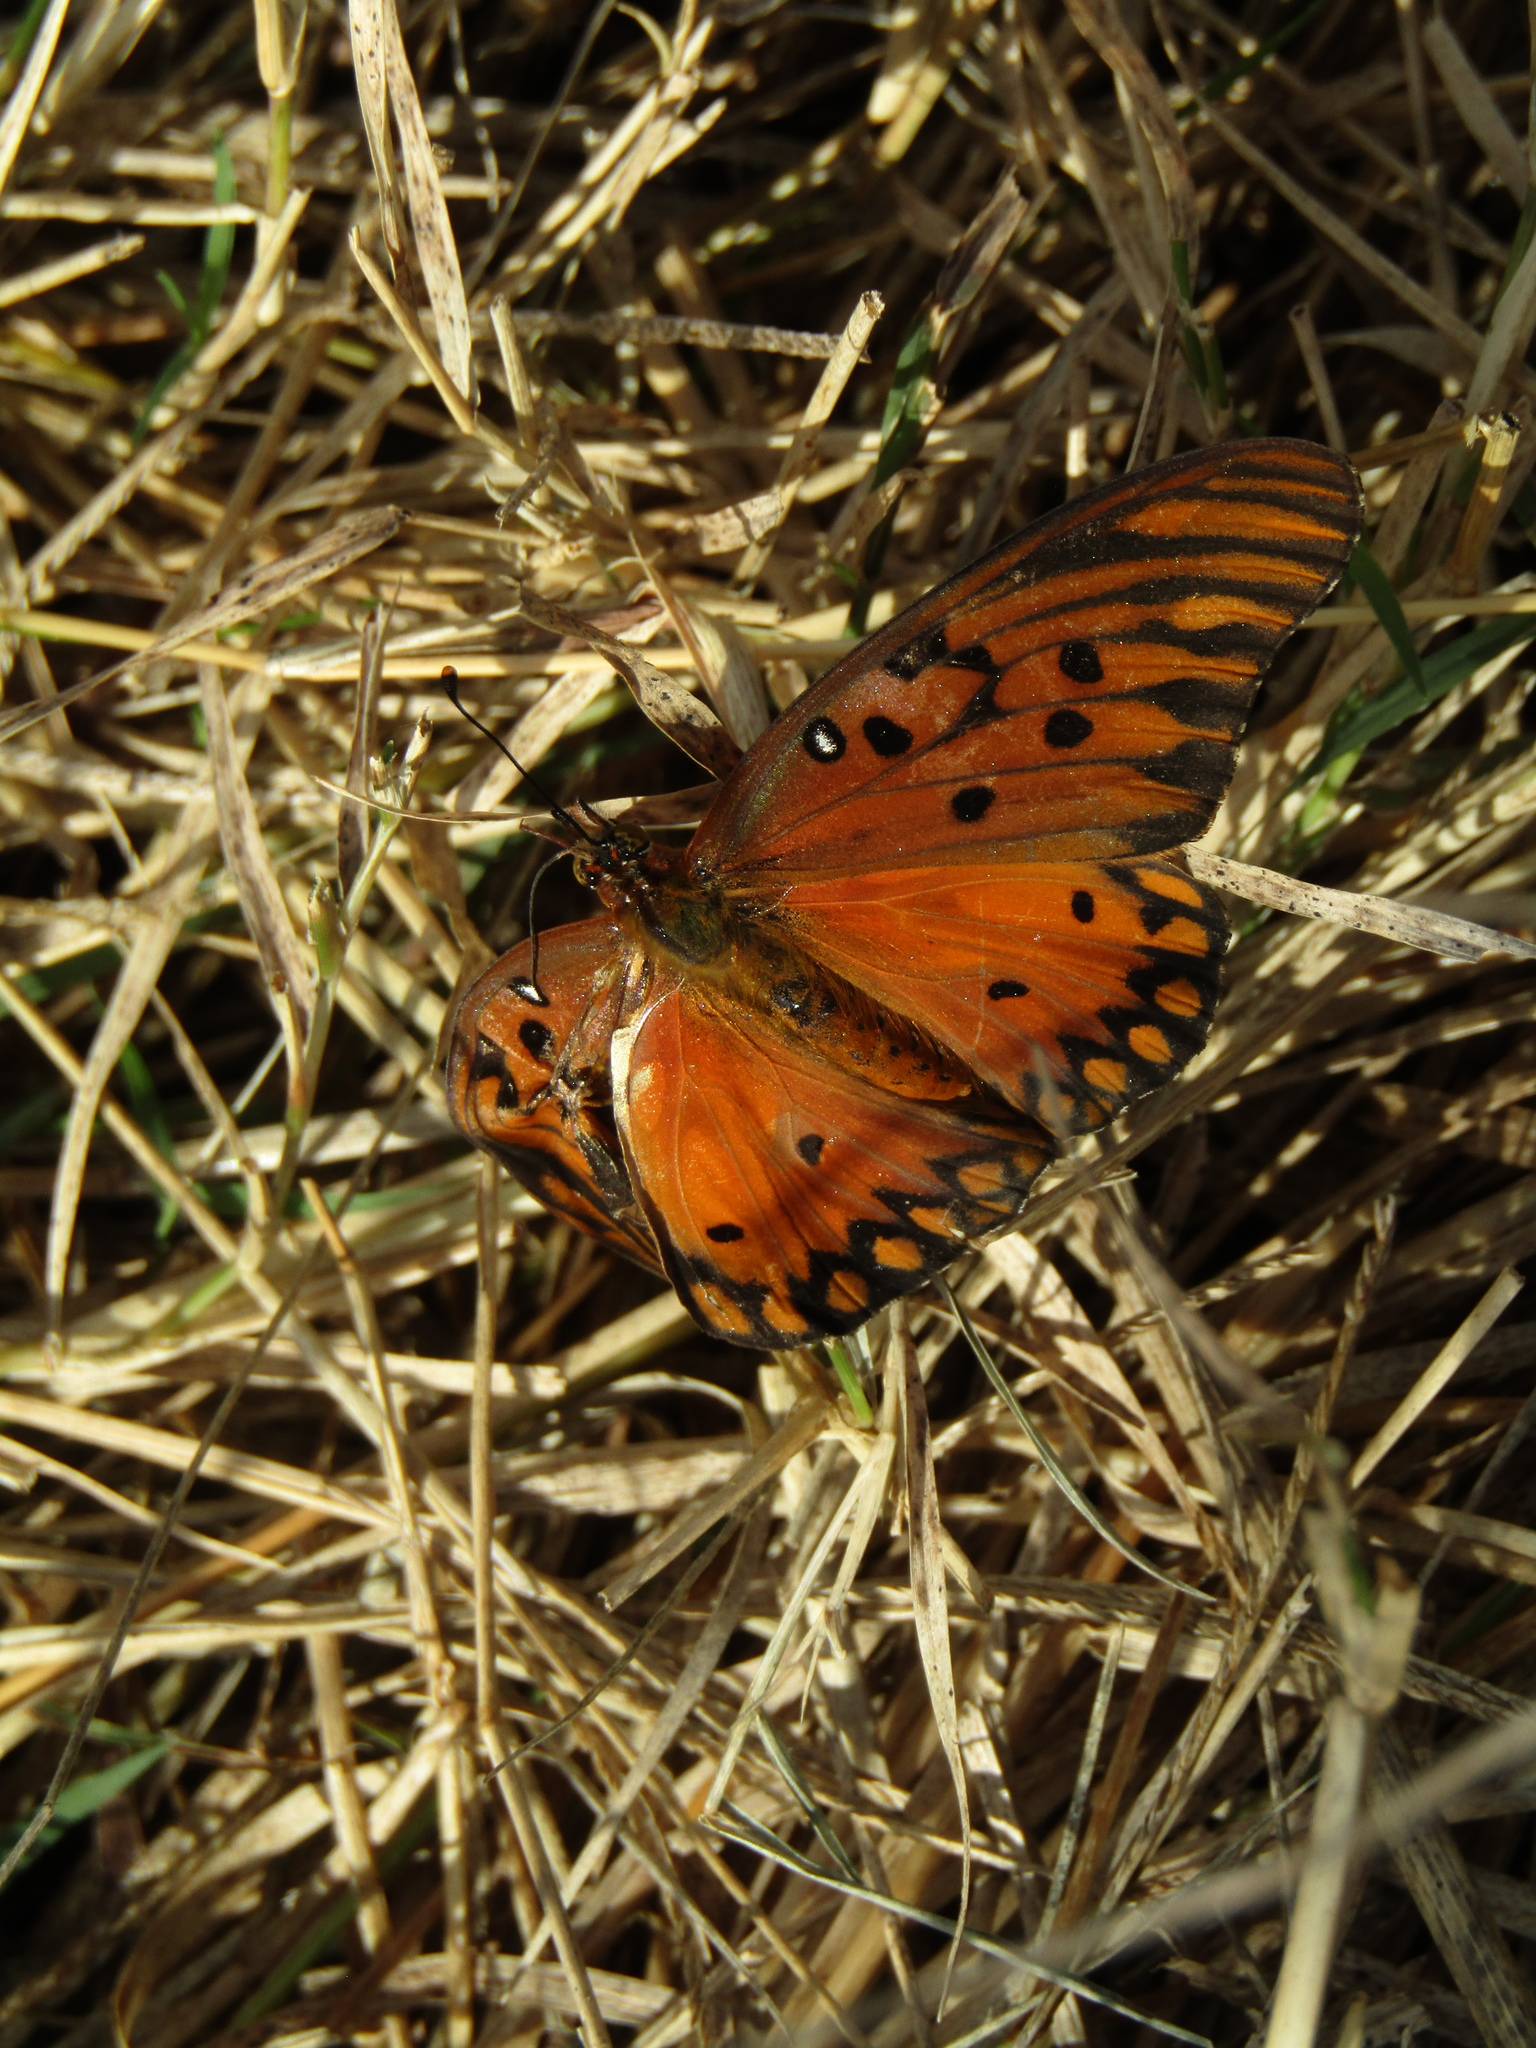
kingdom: Animalia
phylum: Arthropoda
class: Insecta
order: Lepidoptera
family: Nymphalidae
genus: Dione
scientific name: Dione vanillae
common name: Gulf fritillary
